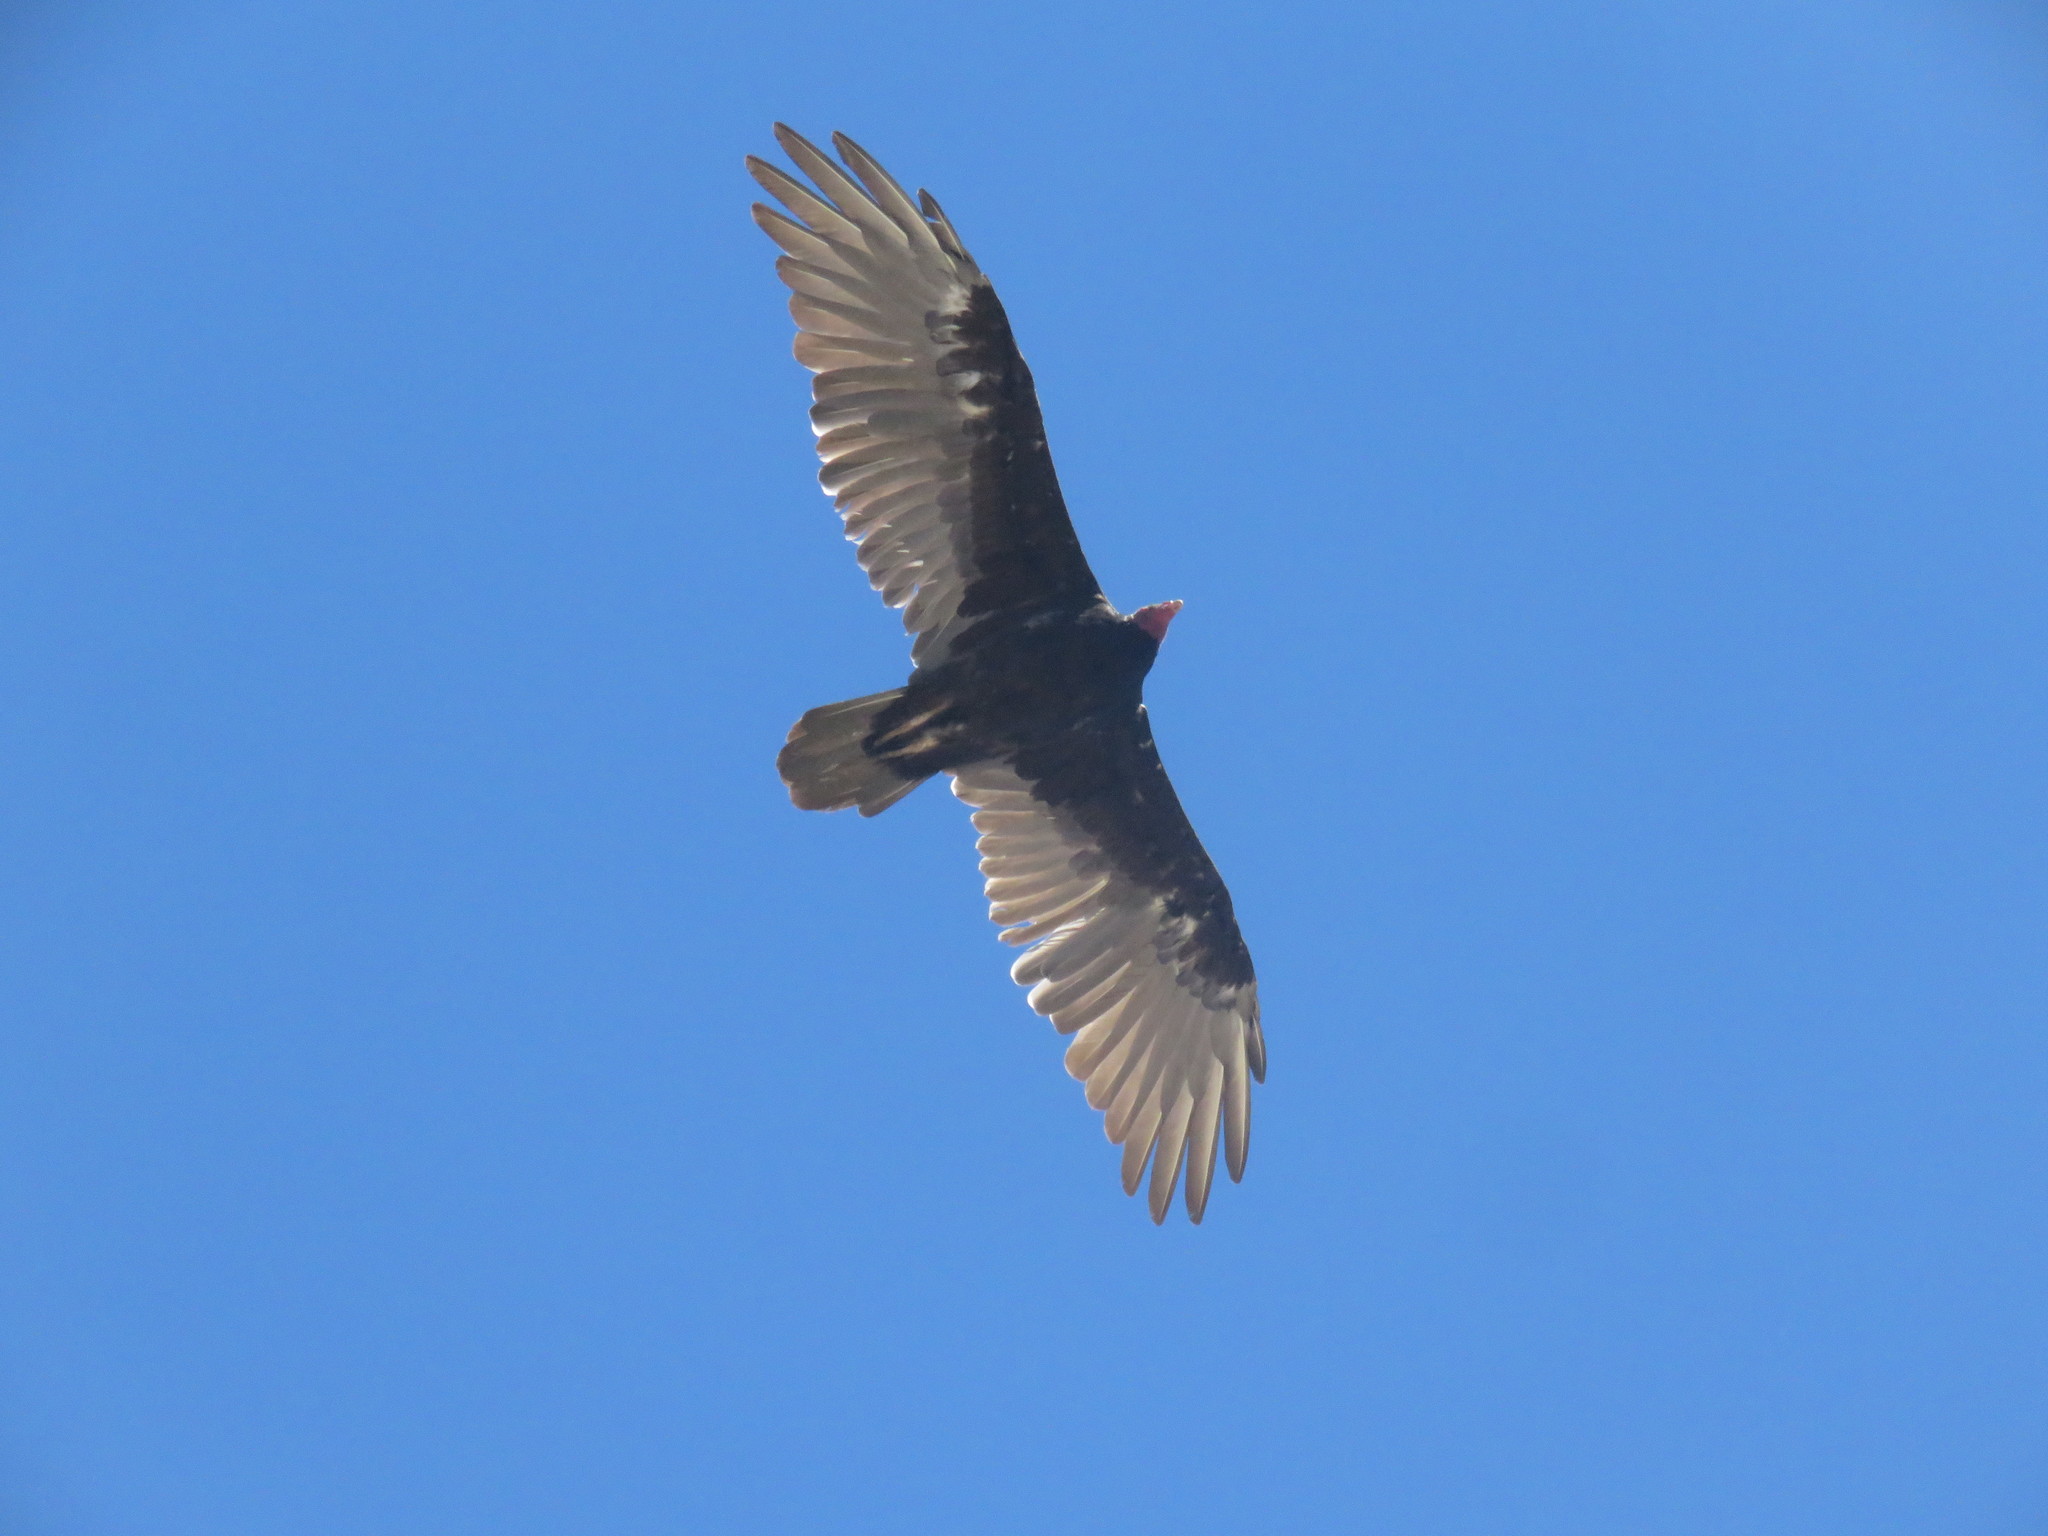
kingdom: Animalia
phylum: Chordata
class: Aves
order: Accipitriformes
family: Cathartidae
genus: Cathartes
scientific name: Cathartes aura
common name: Turkey vulture
